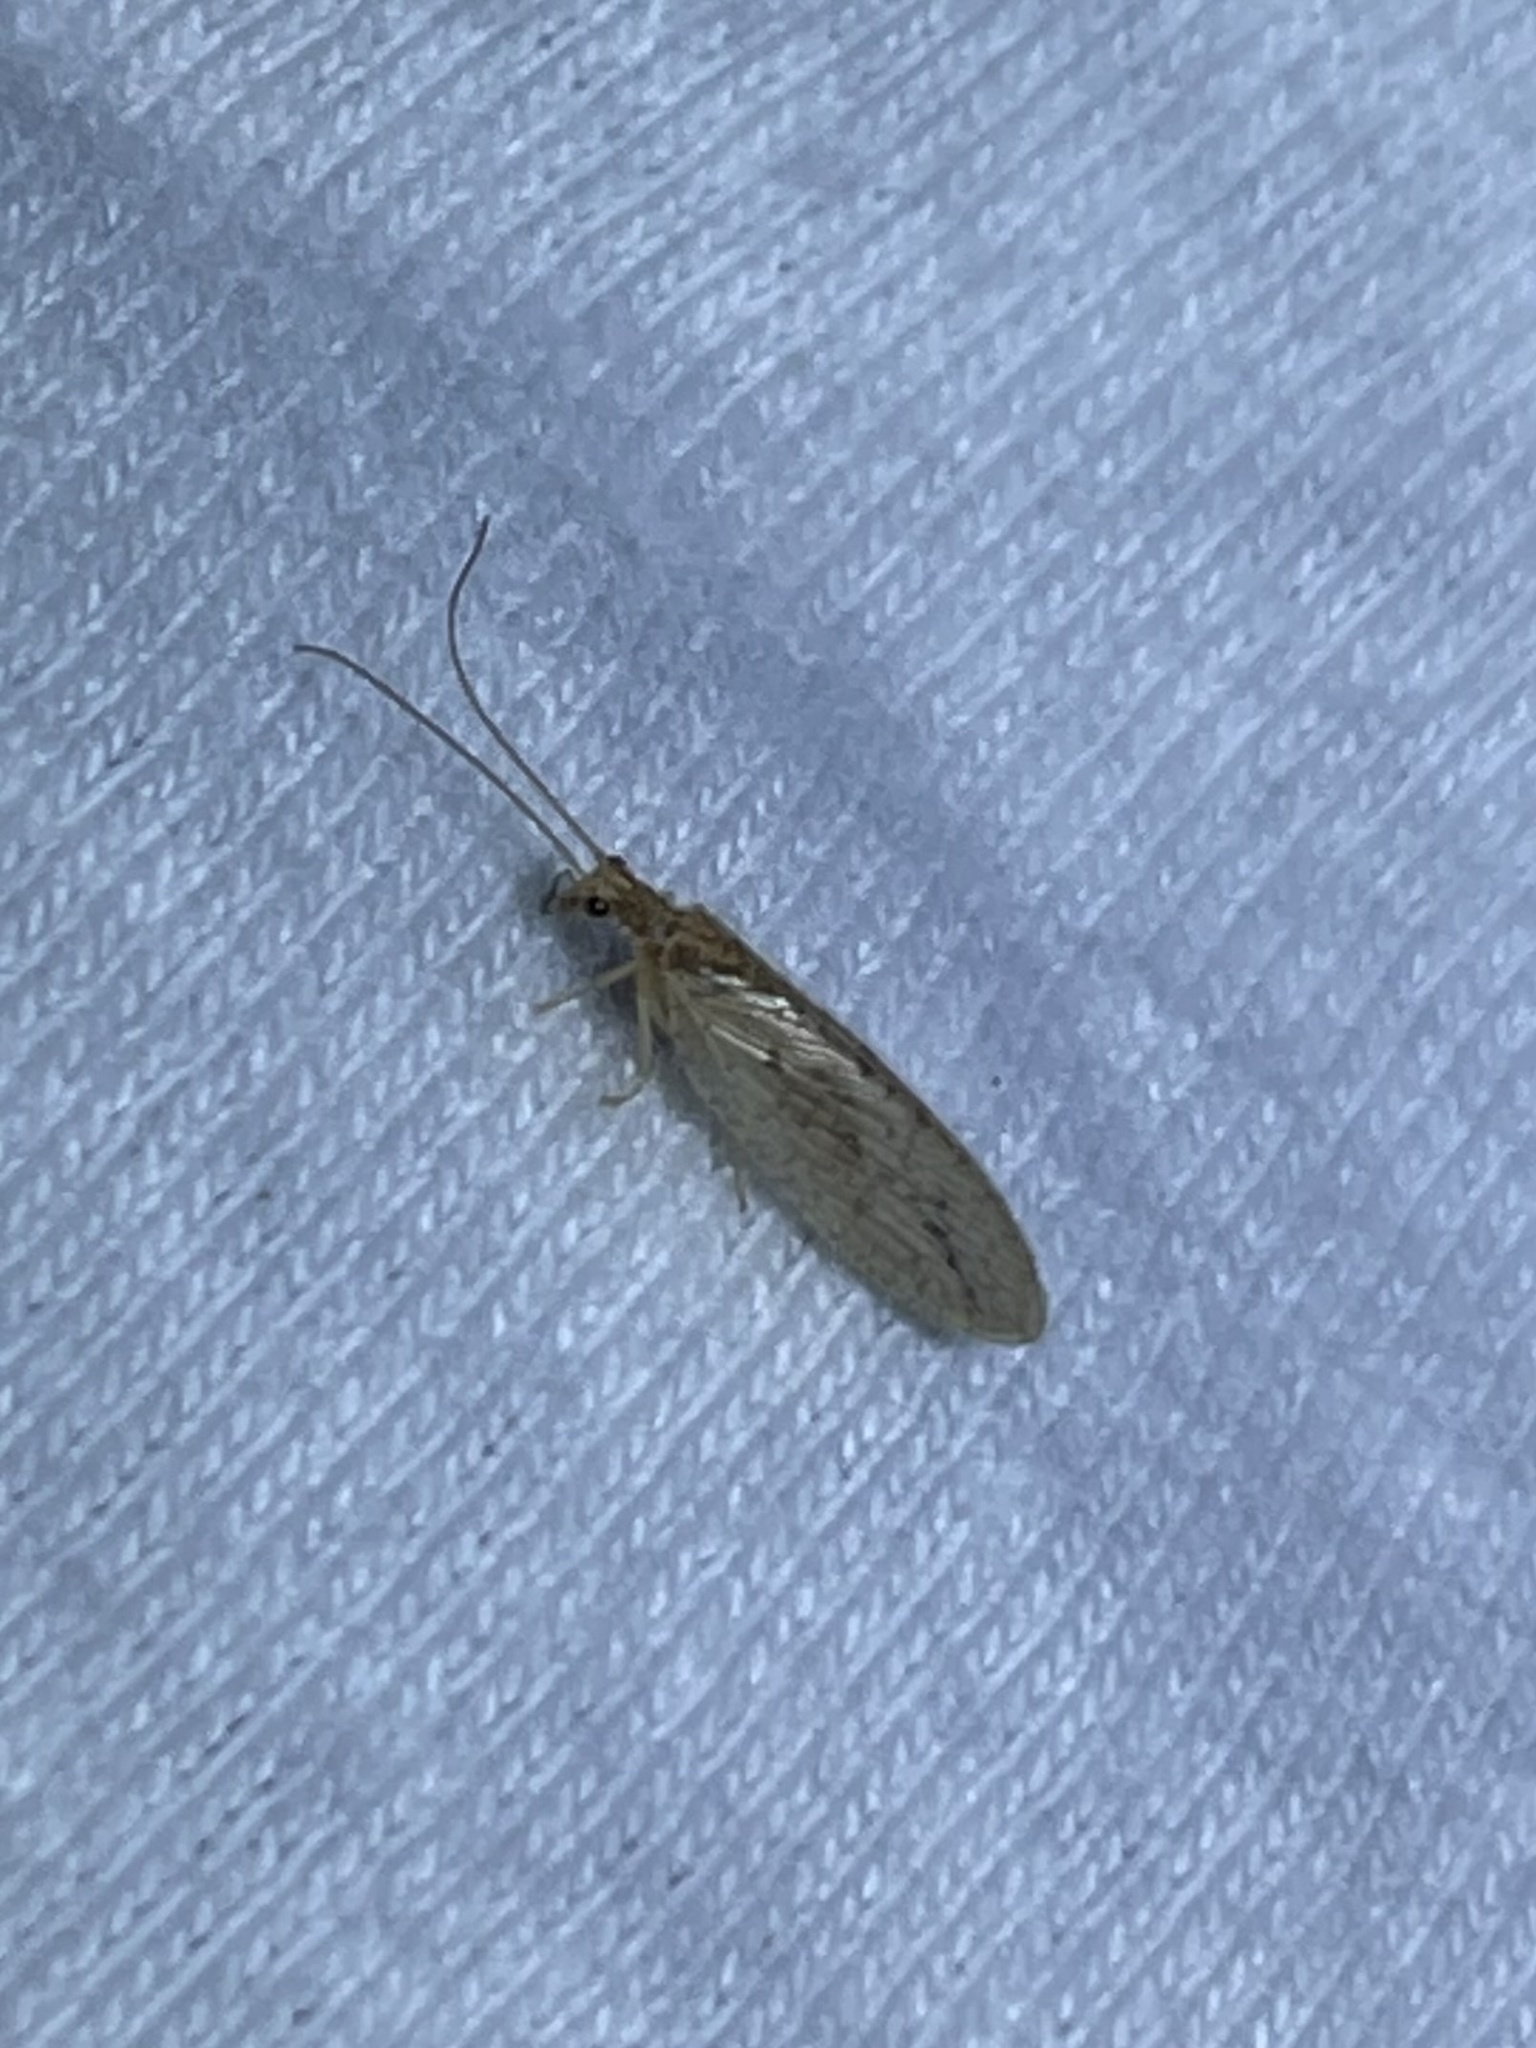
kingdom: Animalia
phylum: Arthropoda
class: Insecta
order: Neuroptera
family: Hemerobiidae
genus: Micromus
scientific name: Micromus subanticus
